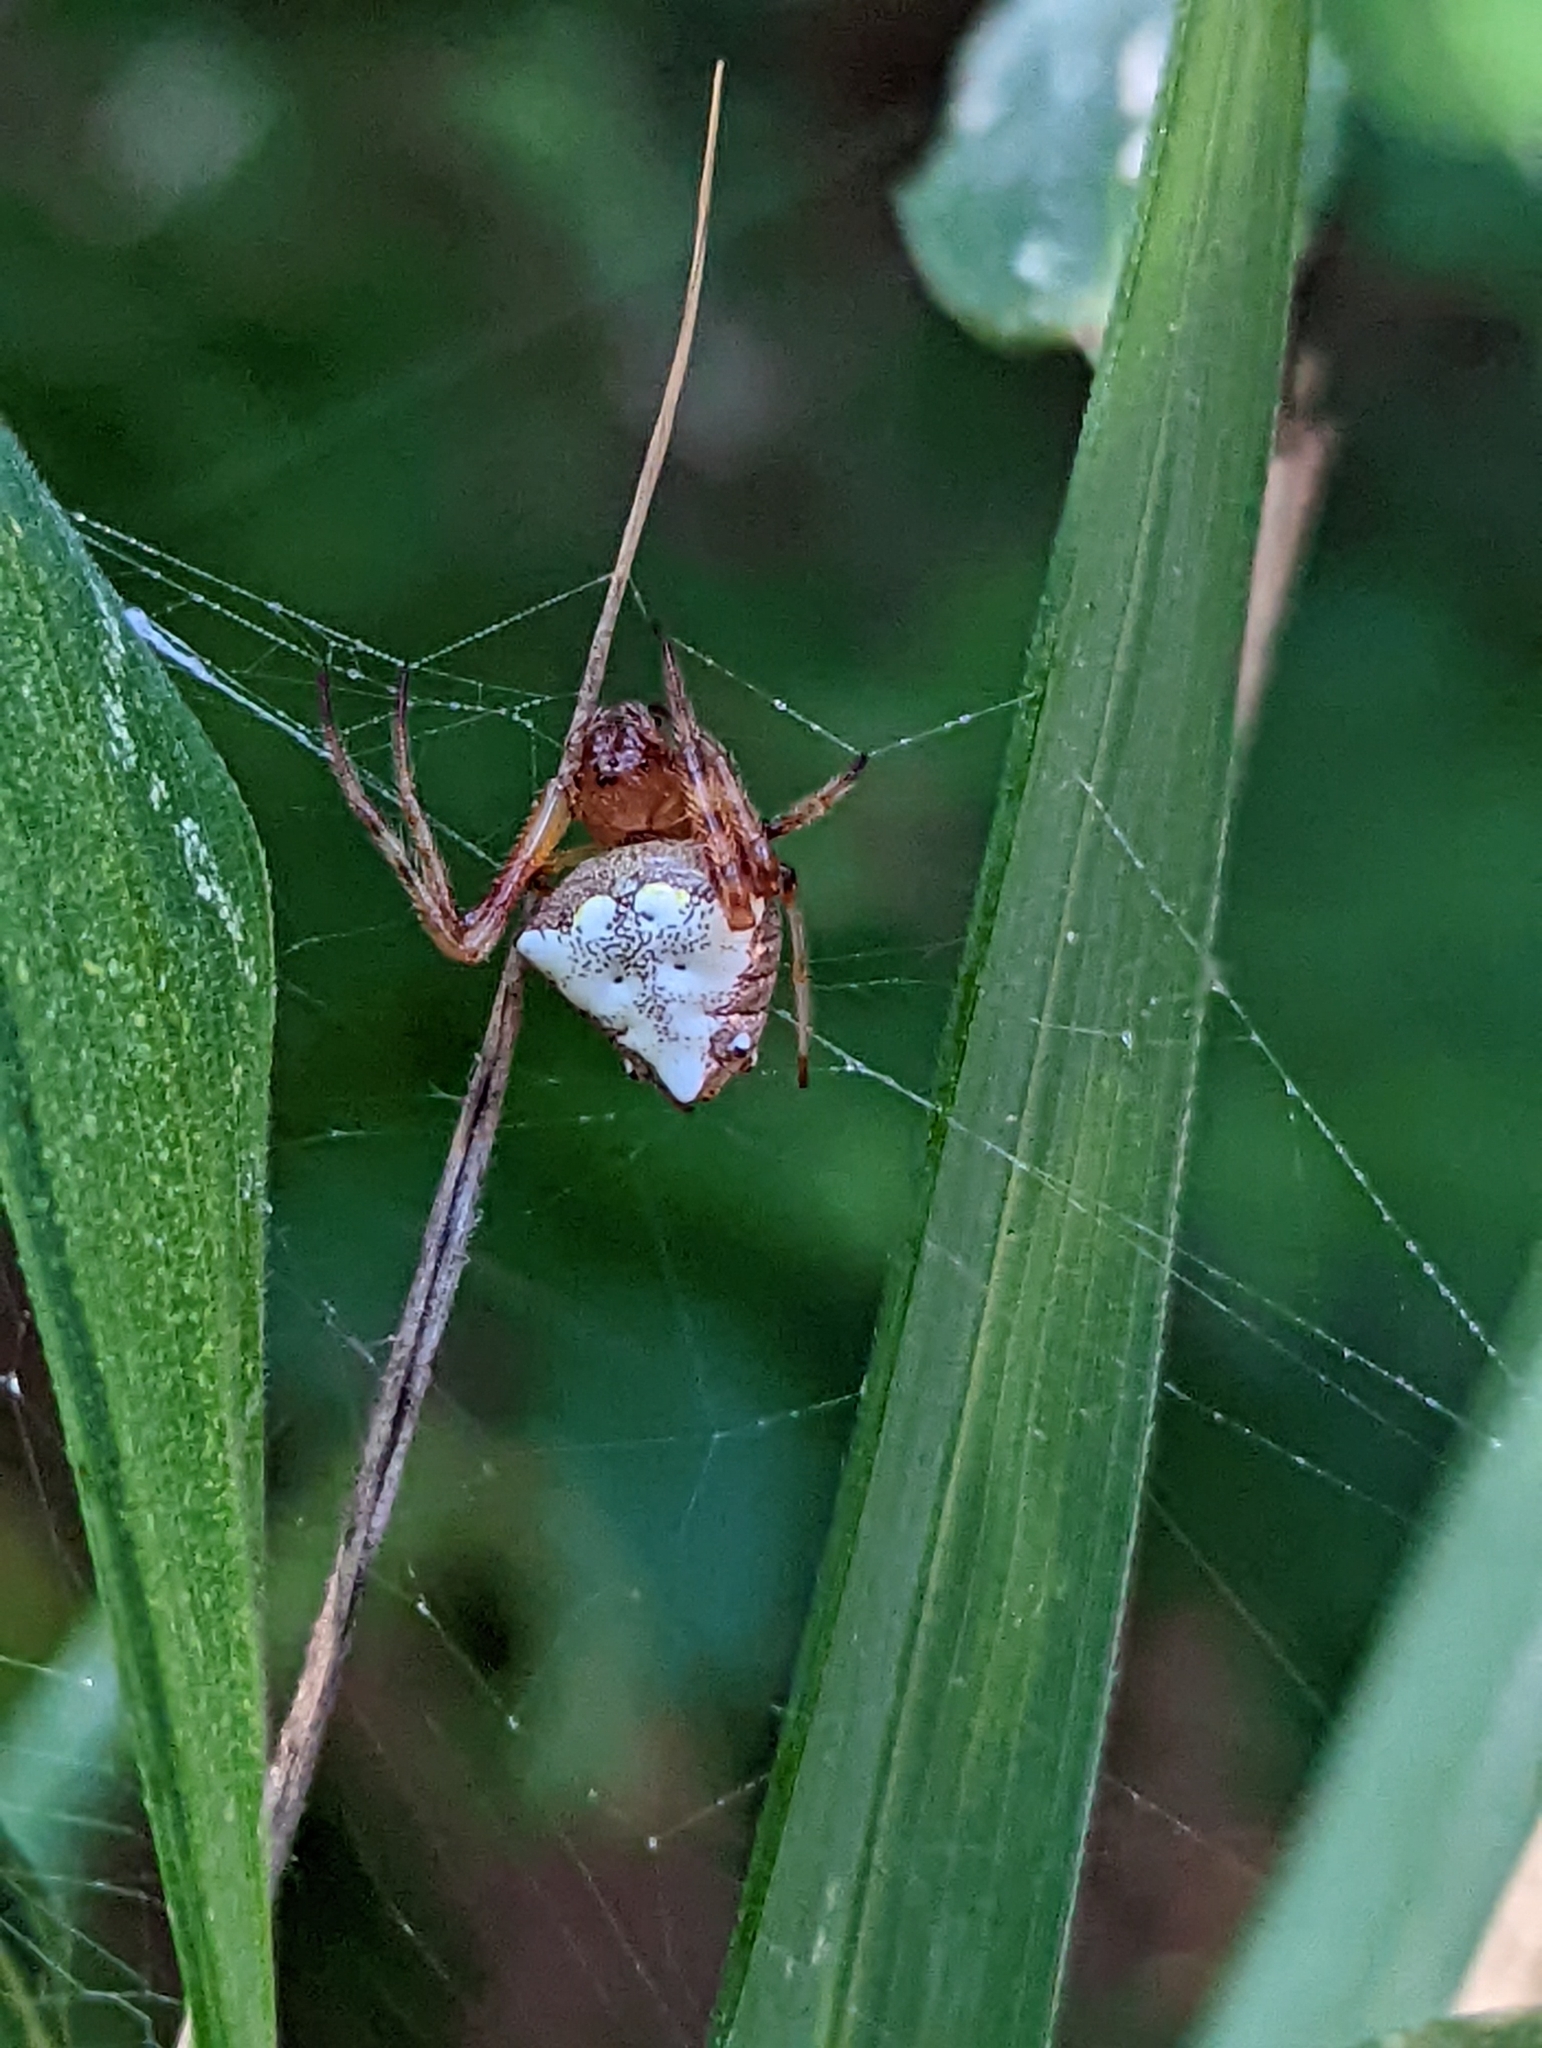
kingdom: Animalia
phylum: Arthropoda
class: Arachnida
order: Araneae
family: Araneidae
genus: Verrucosa
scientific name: Verrucosa arenata
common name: Orb weavers
